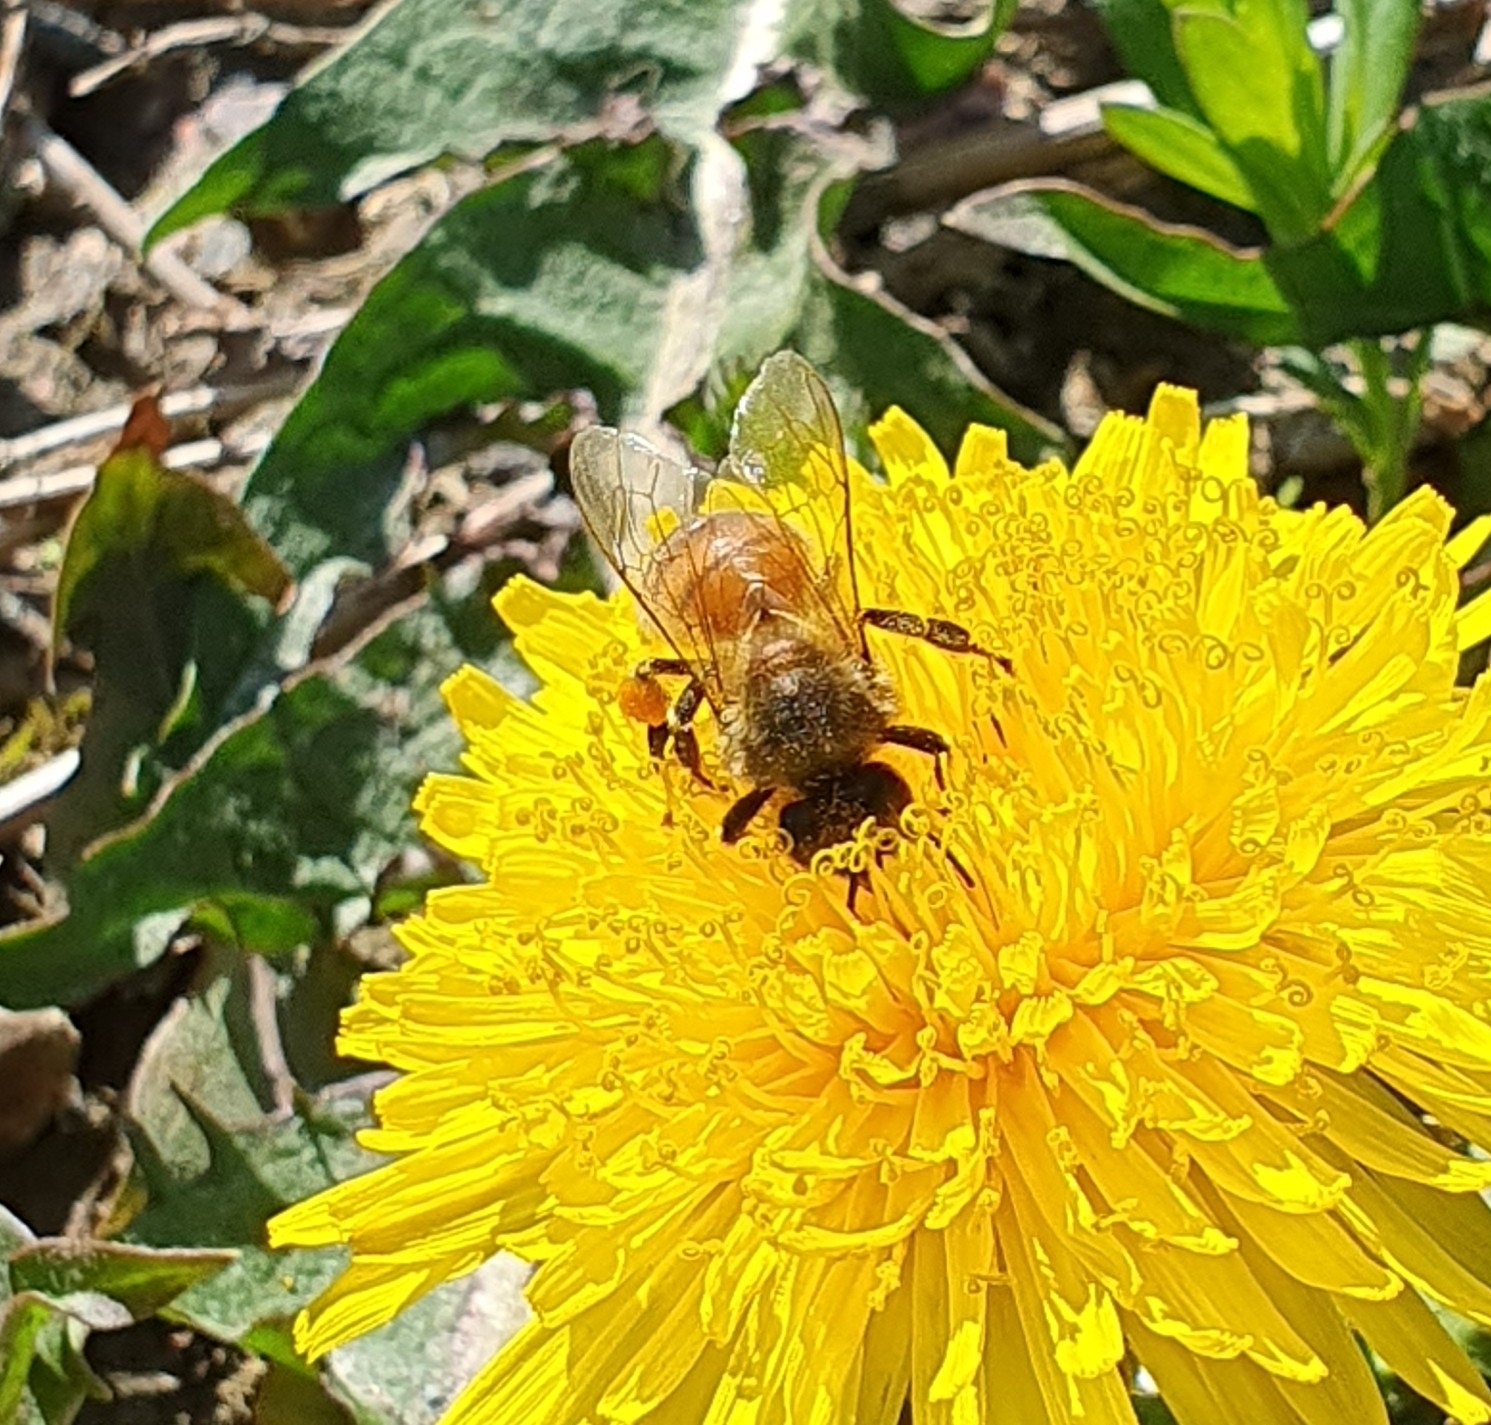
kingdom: Animalia
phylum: Arthropoda
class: Insecta
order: Hymenoptera
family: Apidae
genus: Apis
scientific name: Apis mellifera
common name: Honey bee
